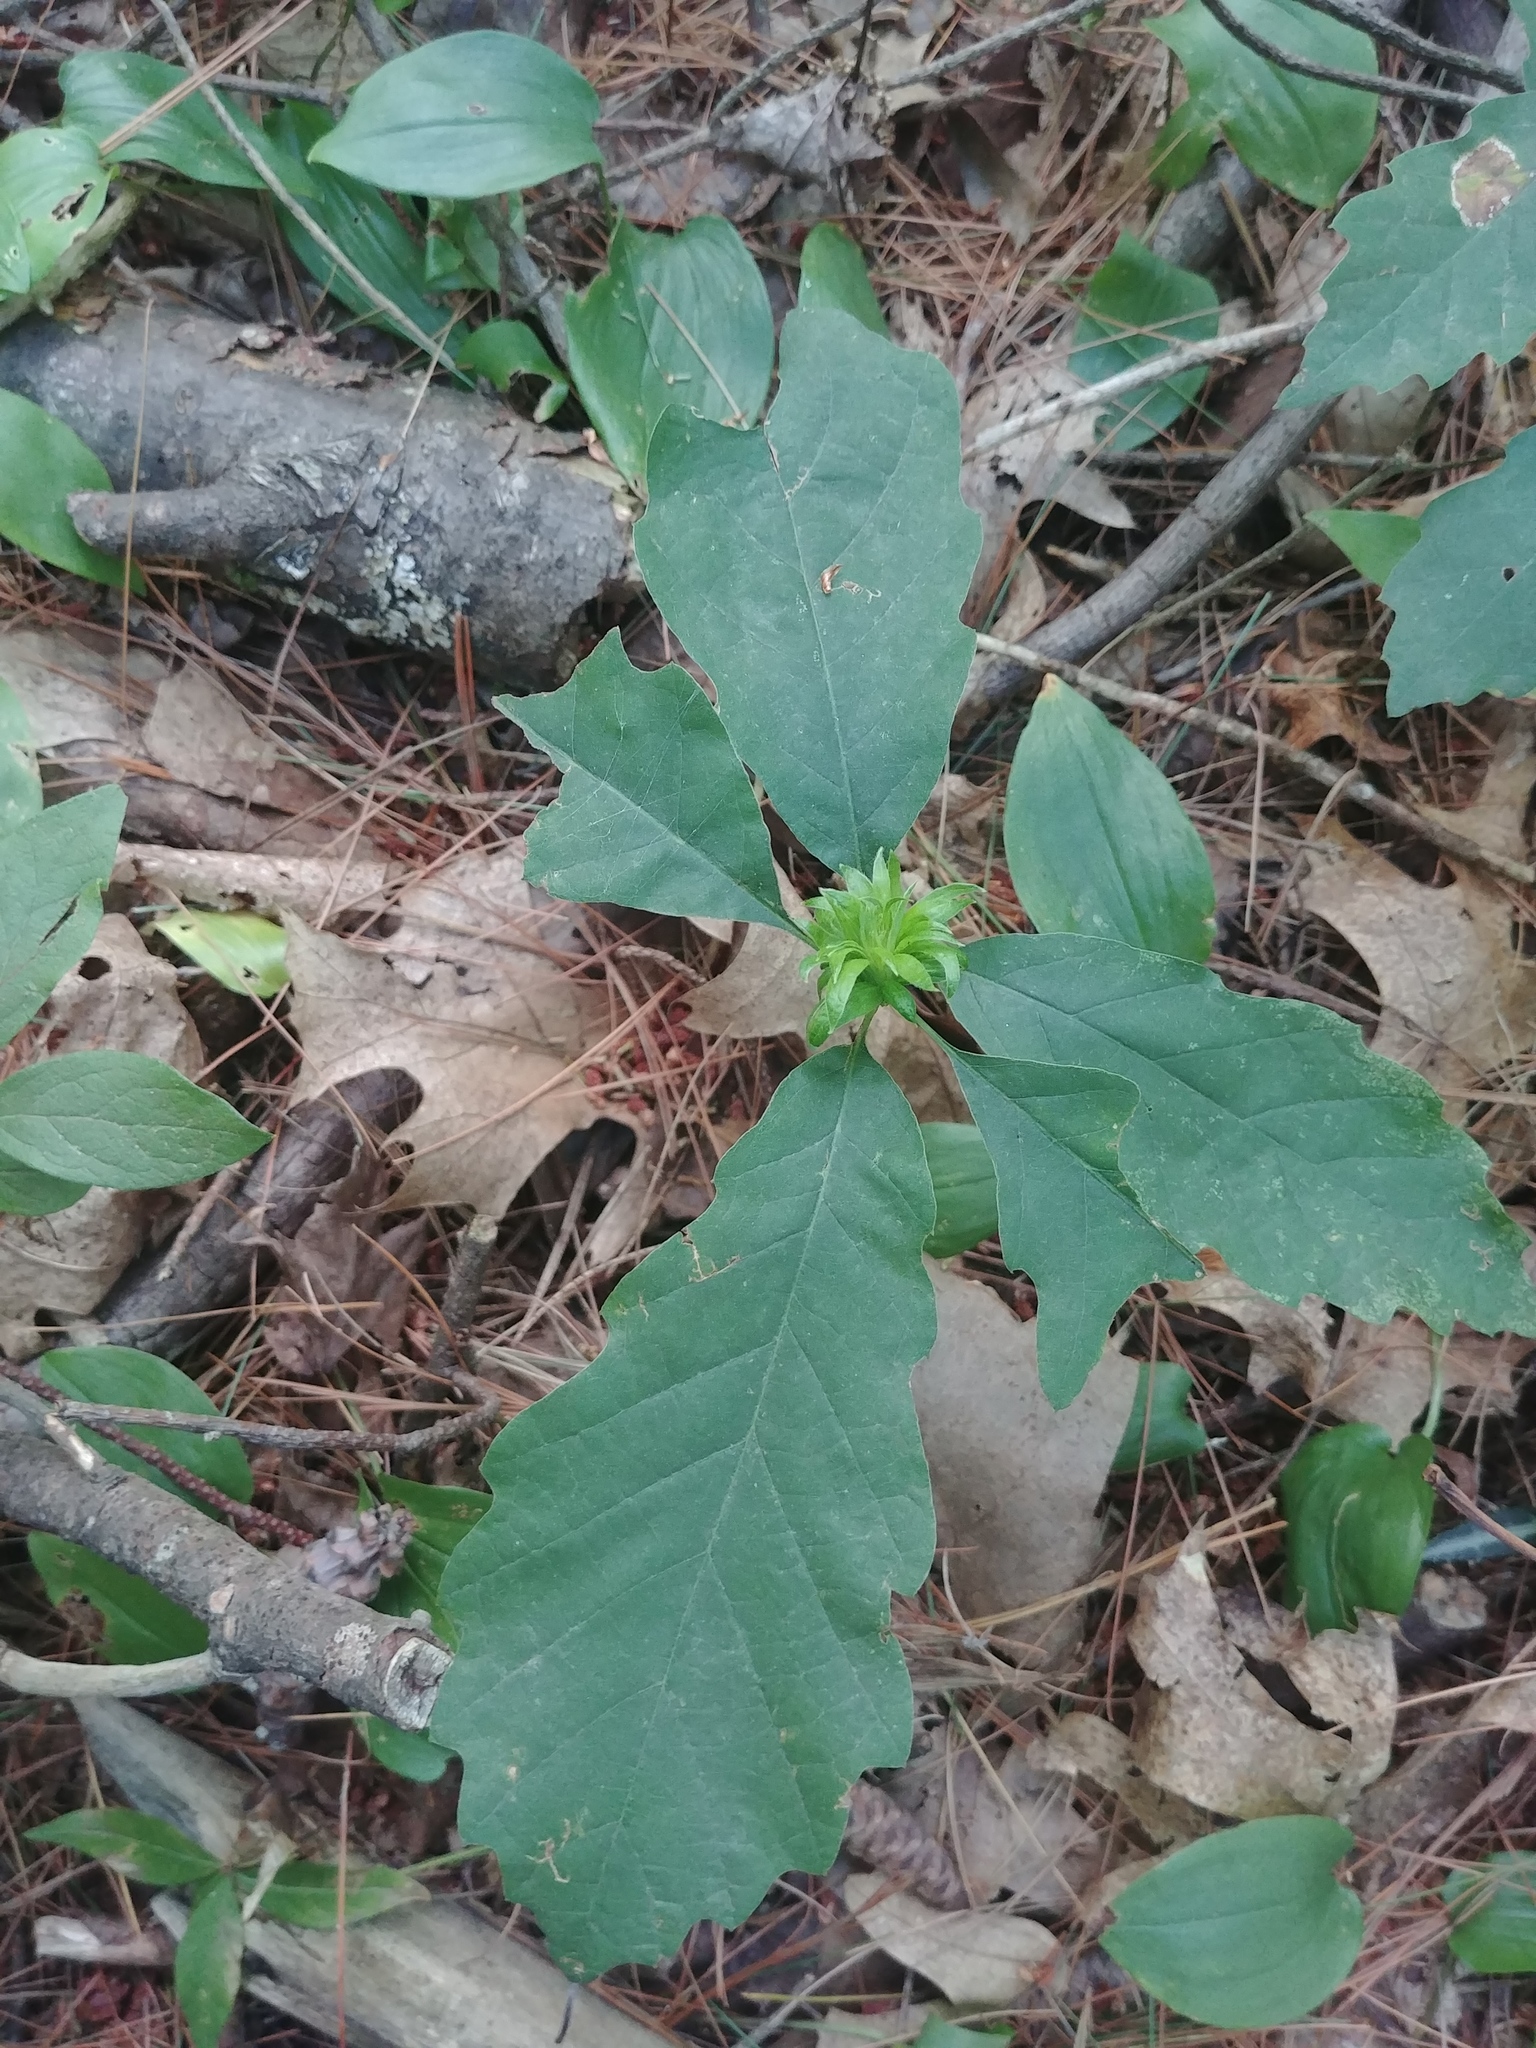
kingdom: Animalia
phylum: Arthropoda
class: Insecta
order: Hymenoptera
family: Cynipidae
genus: Andricus
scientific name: Andricus
